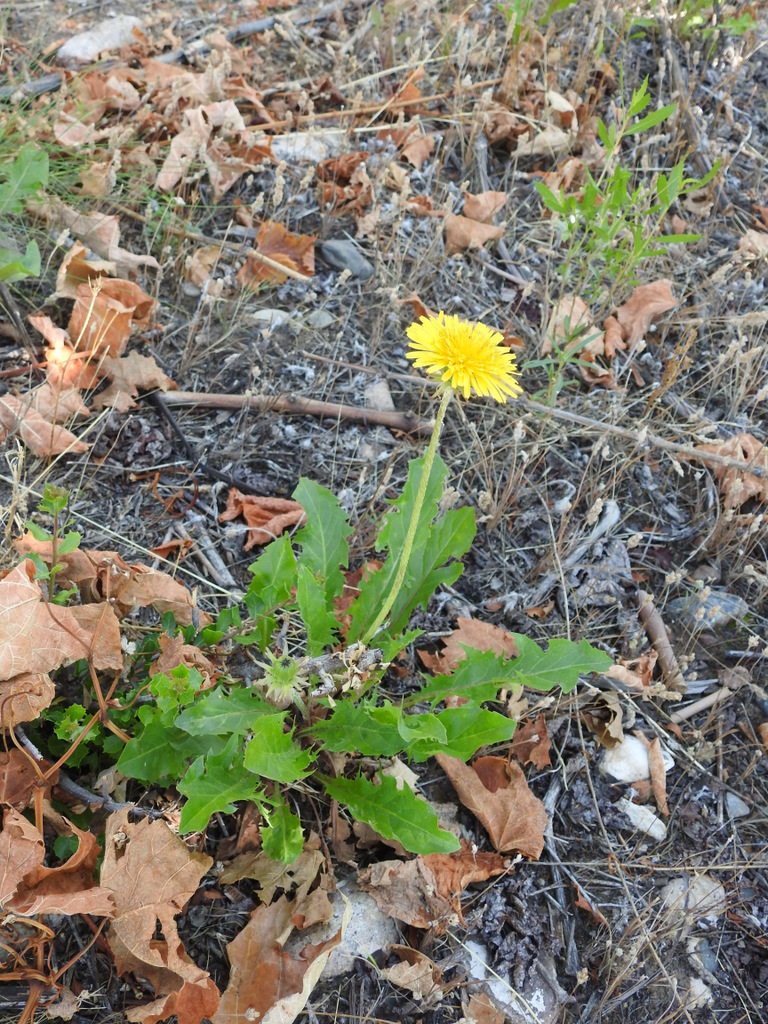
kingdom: Plantae
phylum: Tracheophyta
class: Magnoliopsida
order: Asterales
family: Asteraceae
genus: Taraxacum
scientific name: Taraxacum officinale
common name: Common dandelion
